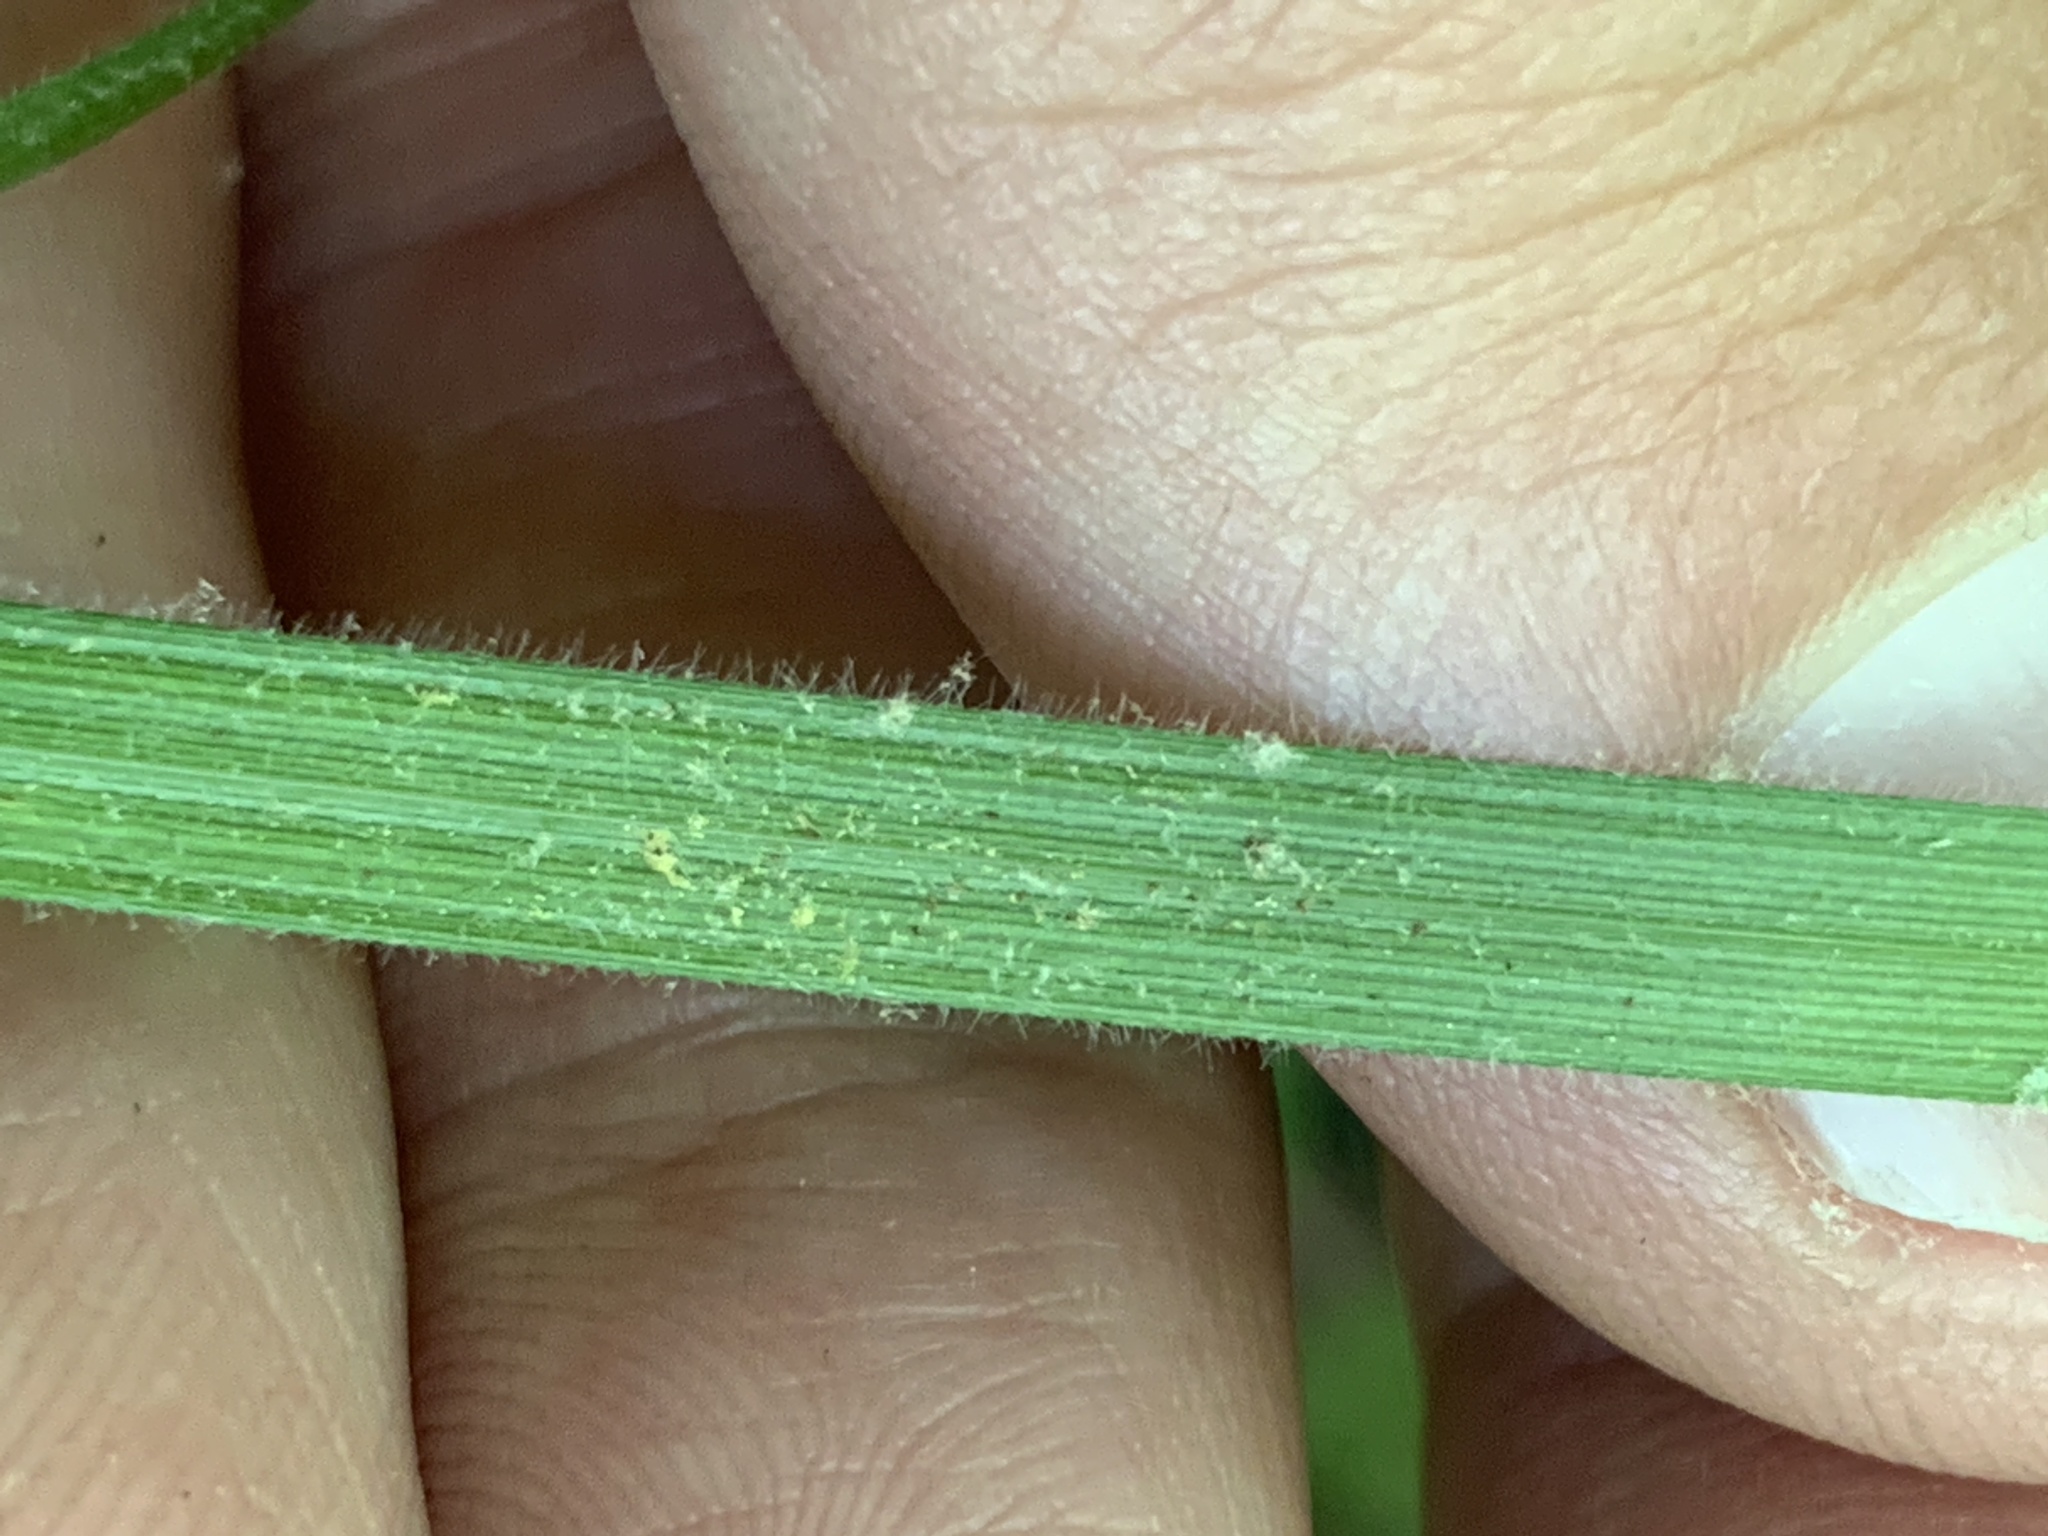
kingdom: Plantae
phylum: Tracheophyta
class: Liliopsida
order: Poales
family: Cyperaceae
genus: Carex
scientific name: Carex virescens
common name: Ribbed sedge
